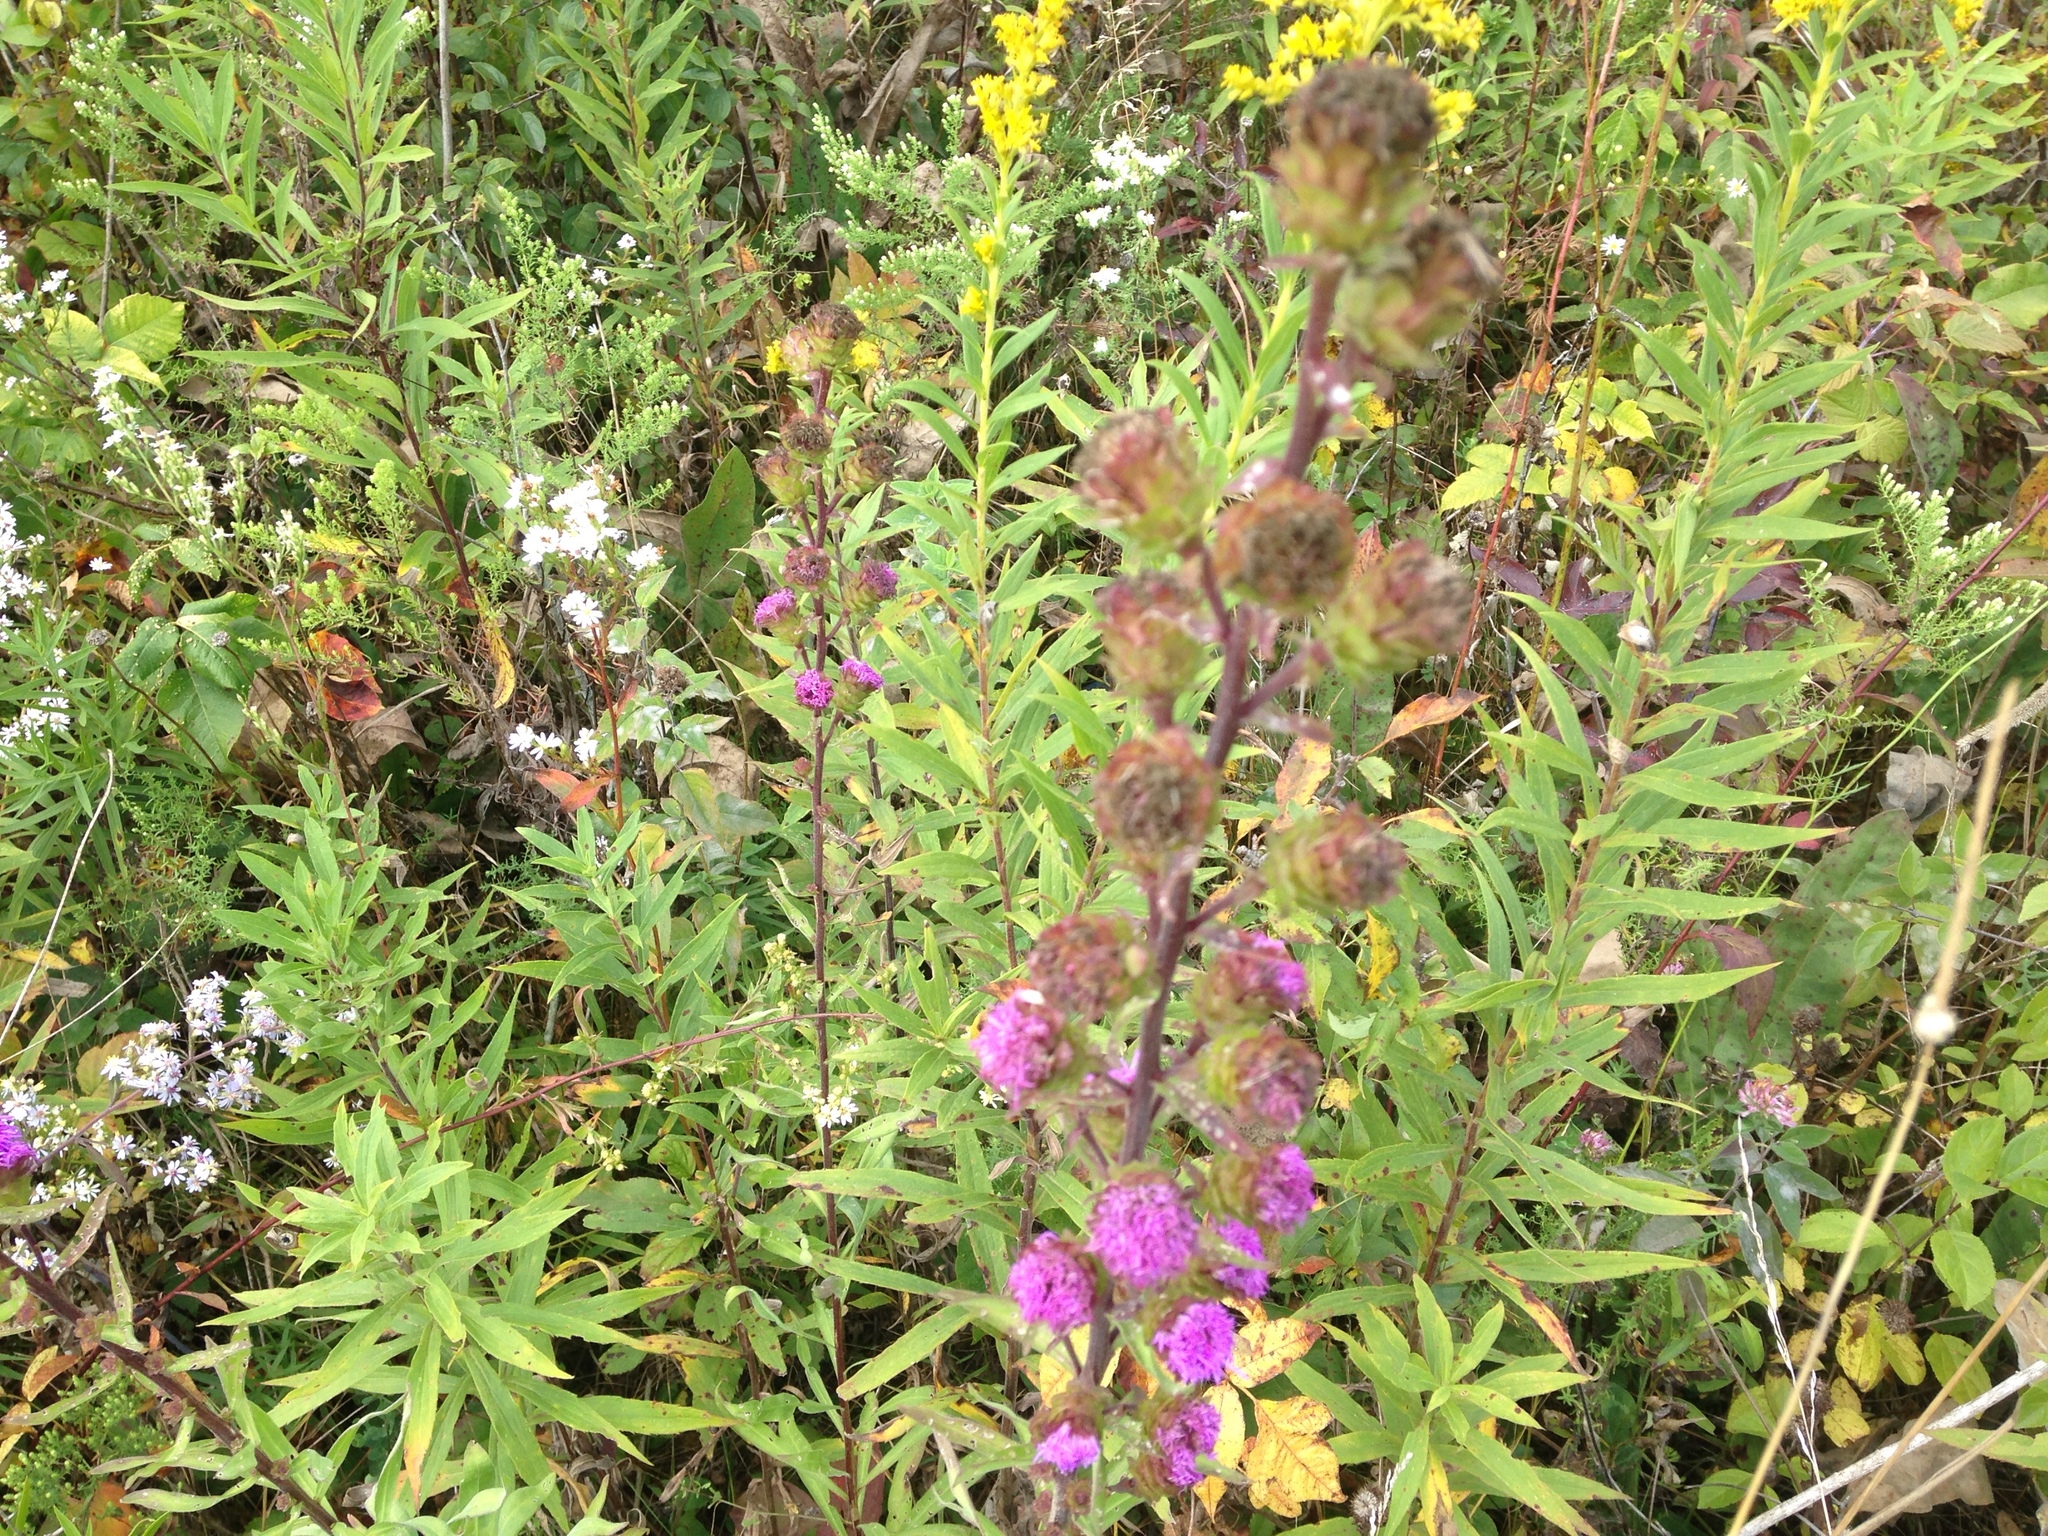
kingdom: Plantae
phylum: Tracheophyta
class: Magnoliopsida
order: Asterales
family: Asteraceae
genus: Liatris
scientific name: Liatris scariosa
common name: Northern gayfeather
